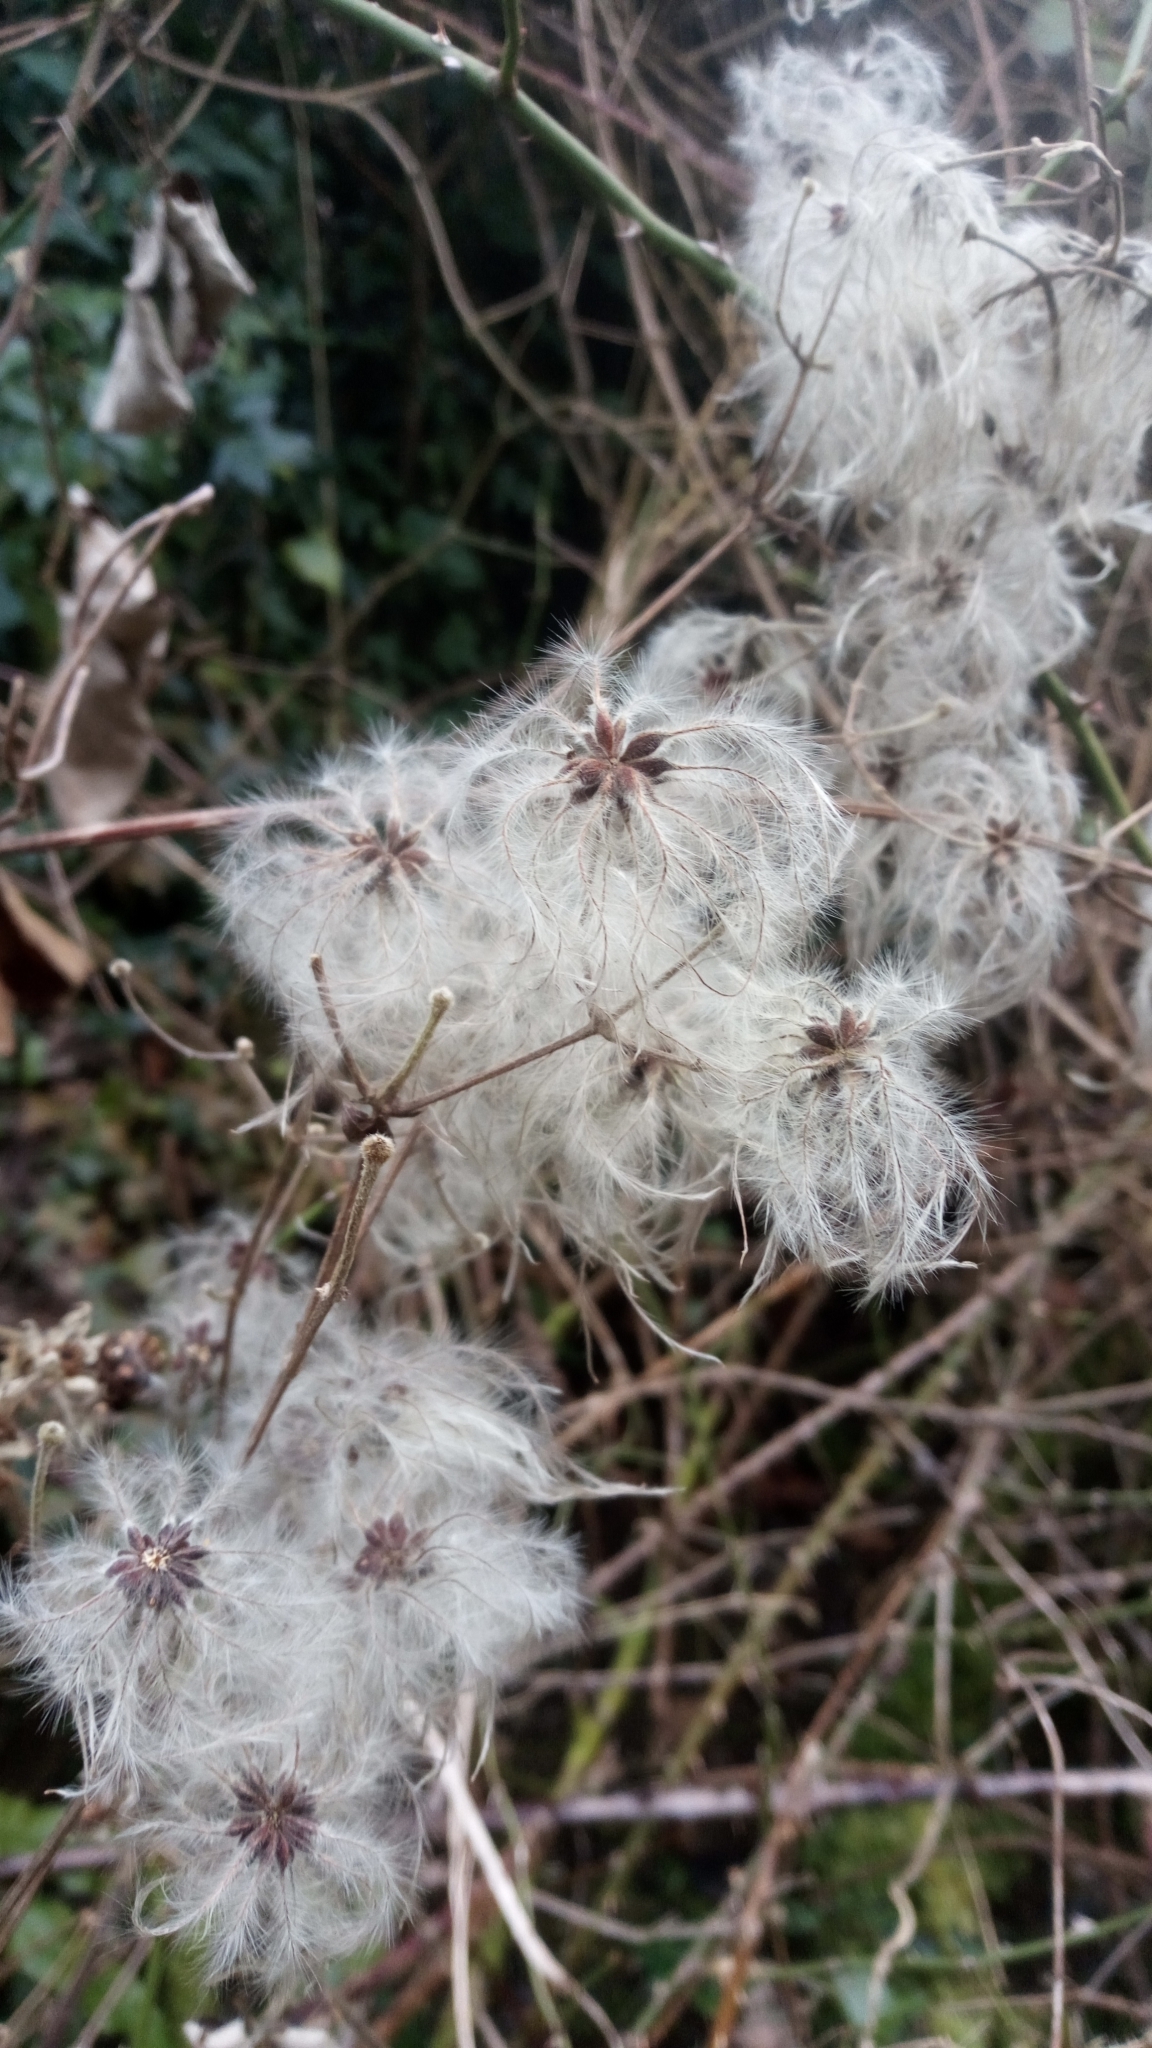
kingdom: Plantae
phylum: Tracheophyta
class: Magnoliopsida
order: Ranunculales
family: Ranunculaceae
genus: Clematis
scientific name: Clematis vitalba
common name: Evergreen clematis
